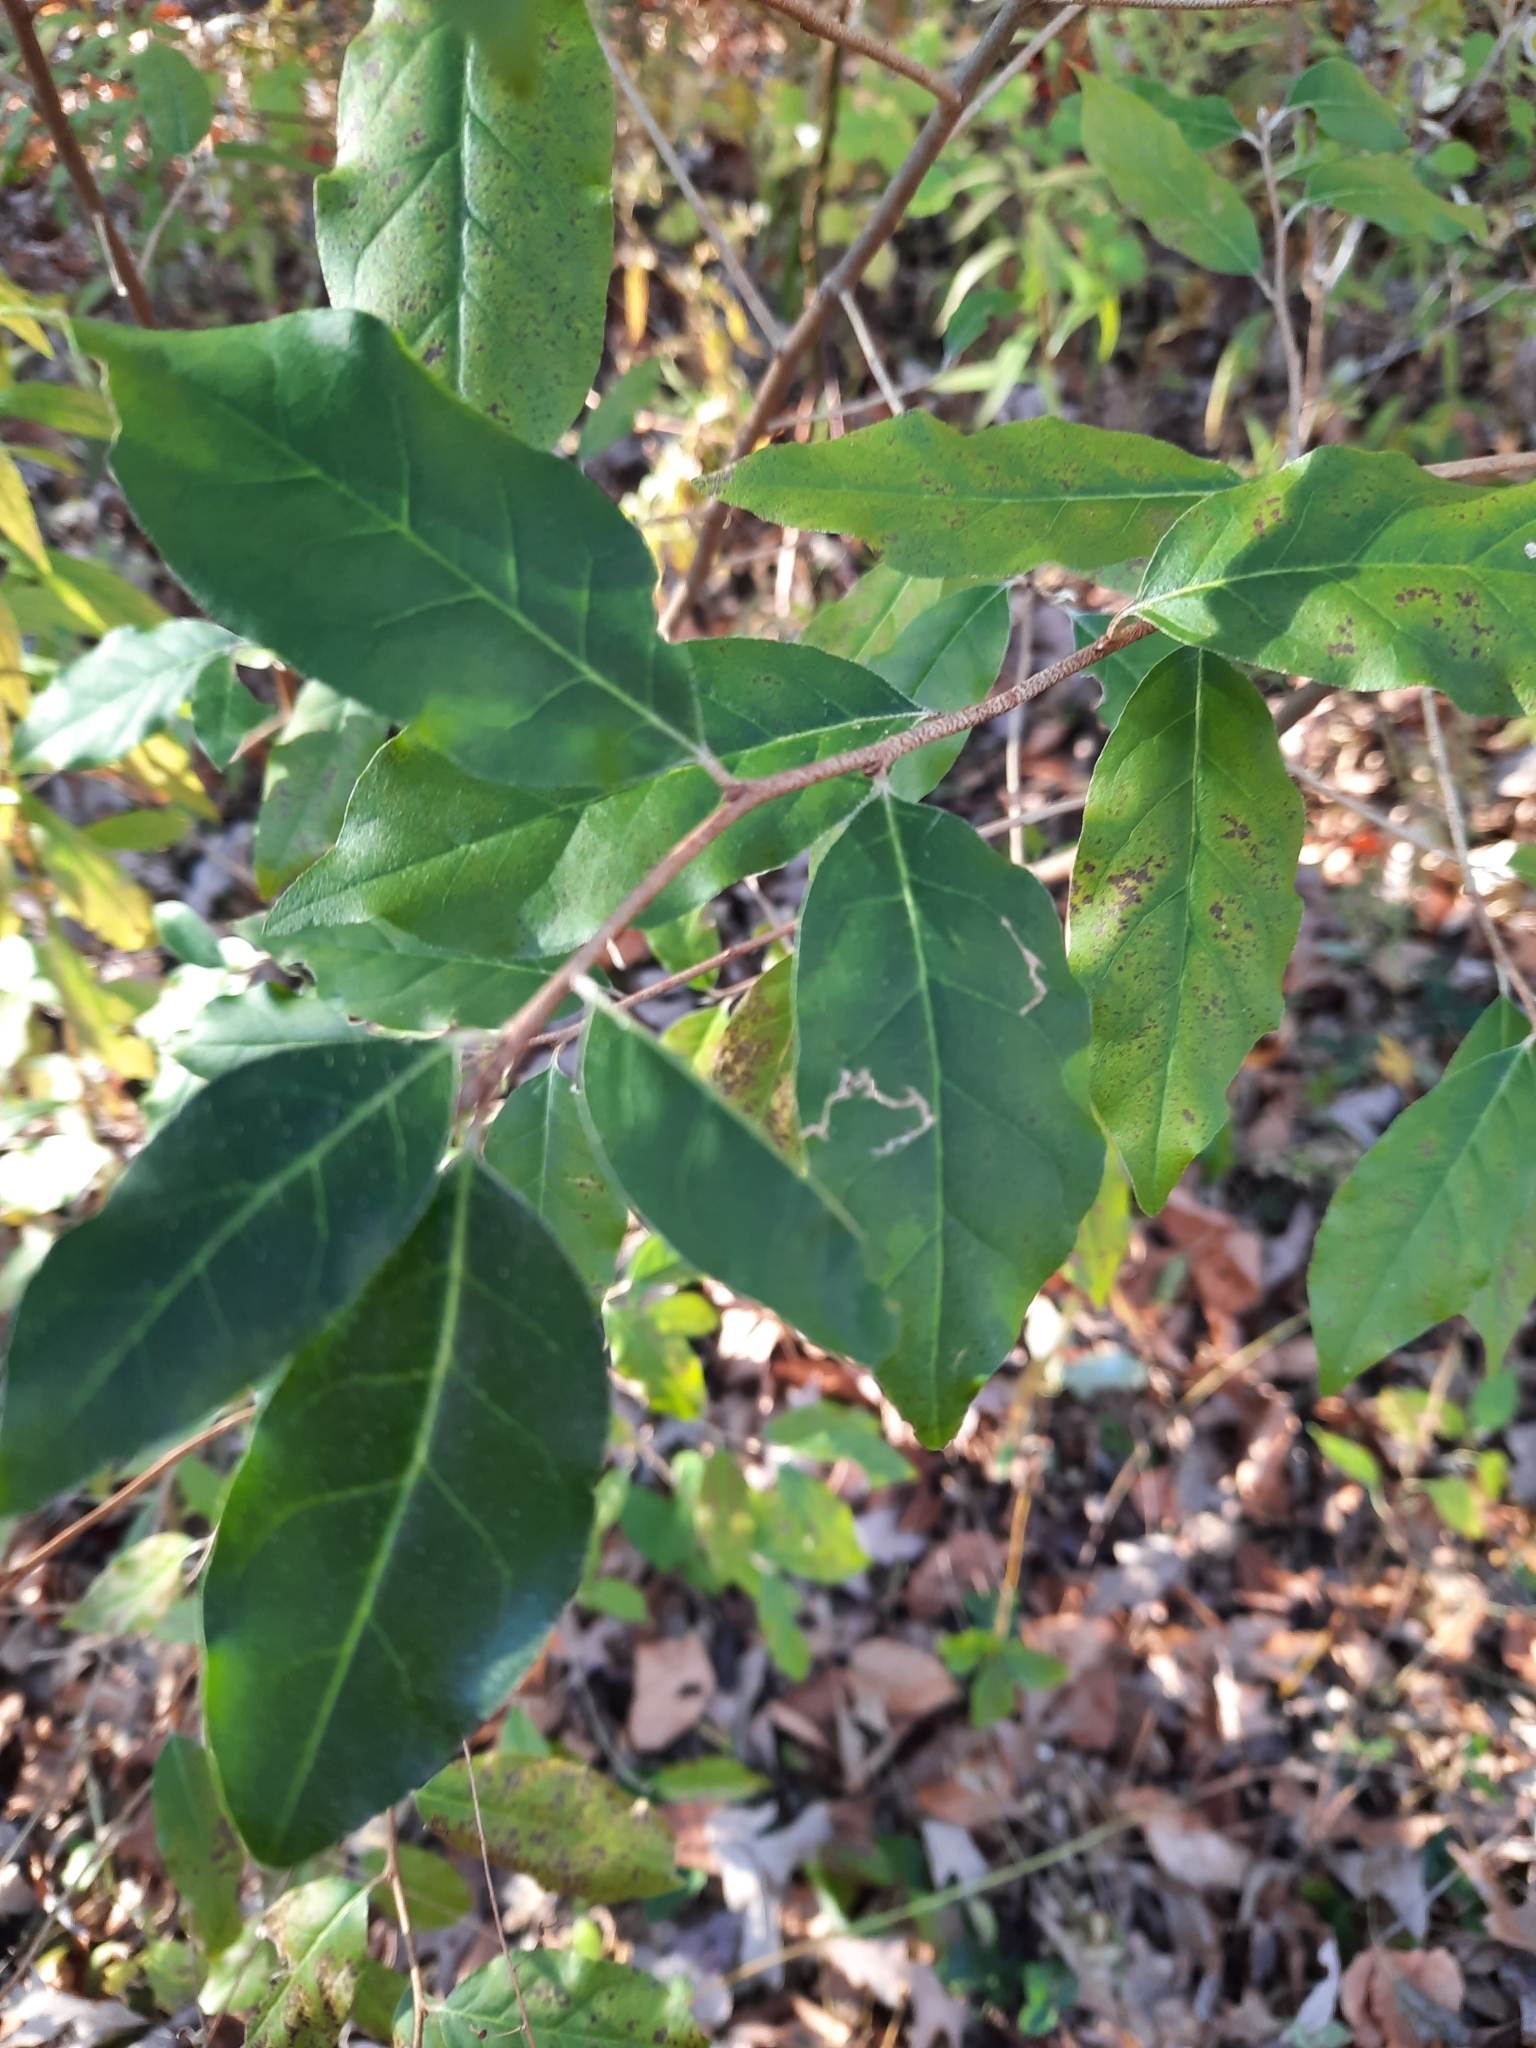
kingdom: Plantae
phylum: Tracheophyta
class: Magnoliopsida
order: Rosales
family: Elaeagnaceae
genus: Elaeagnus
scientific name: Elaeagnus umbellata
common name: Autumn olive
